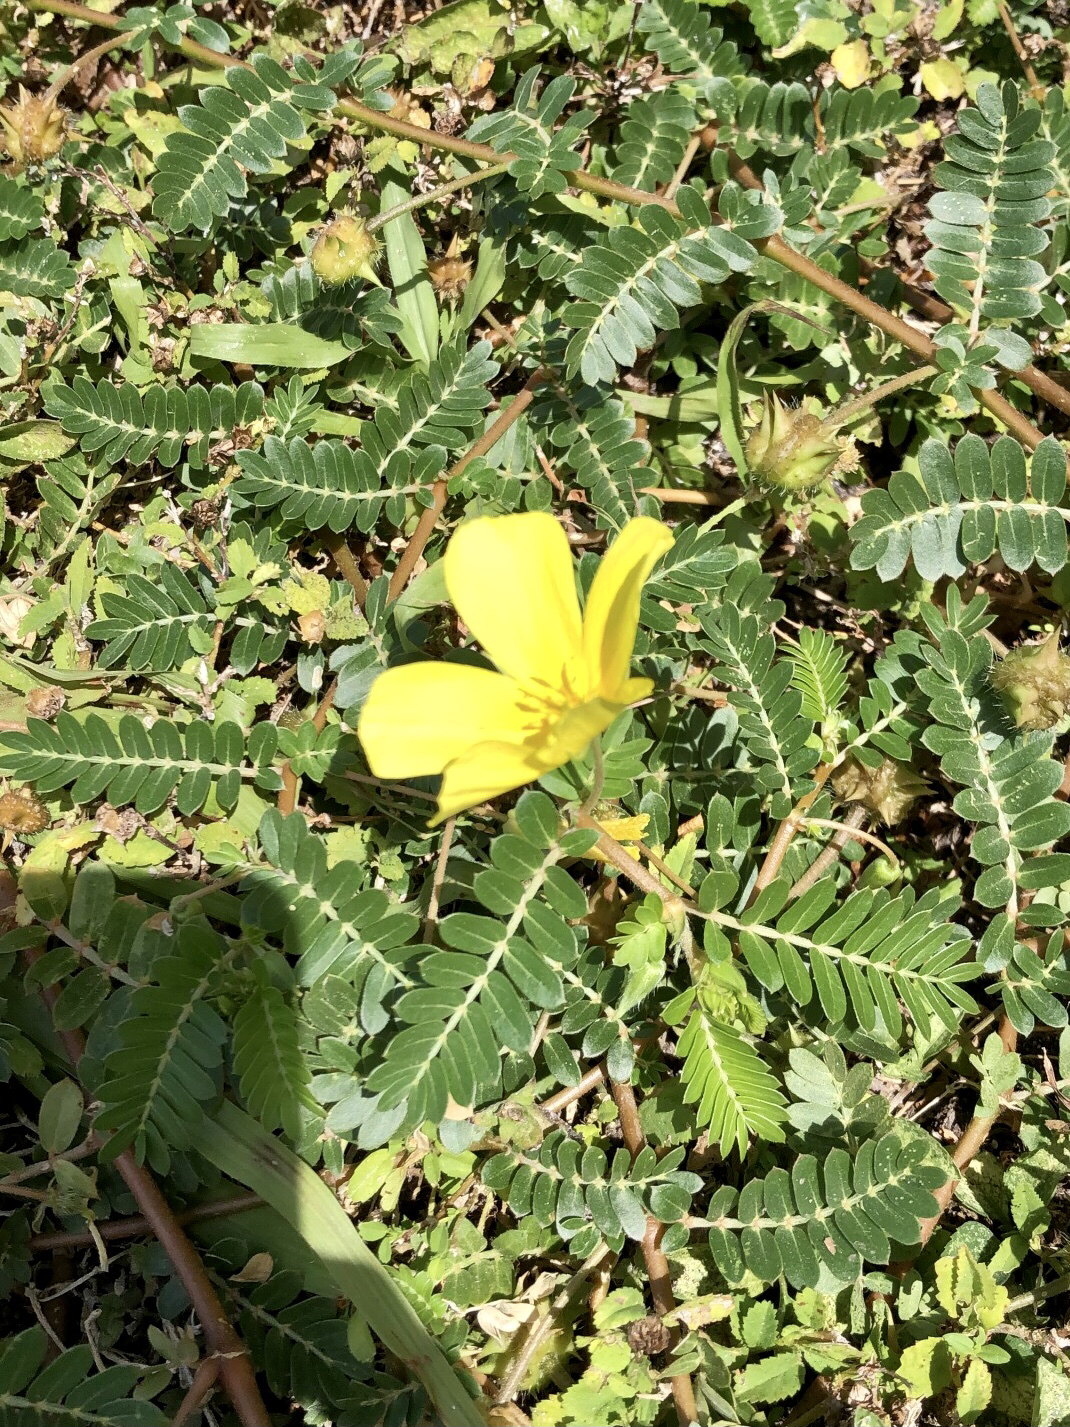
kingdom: Plantae
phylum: Tracheophyta
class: Magnoliopsida
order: Zygophyllales
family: Zygophyllaceae
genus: Tribulus
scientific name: Tribulus cistoides
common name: Jamaican feverplant
